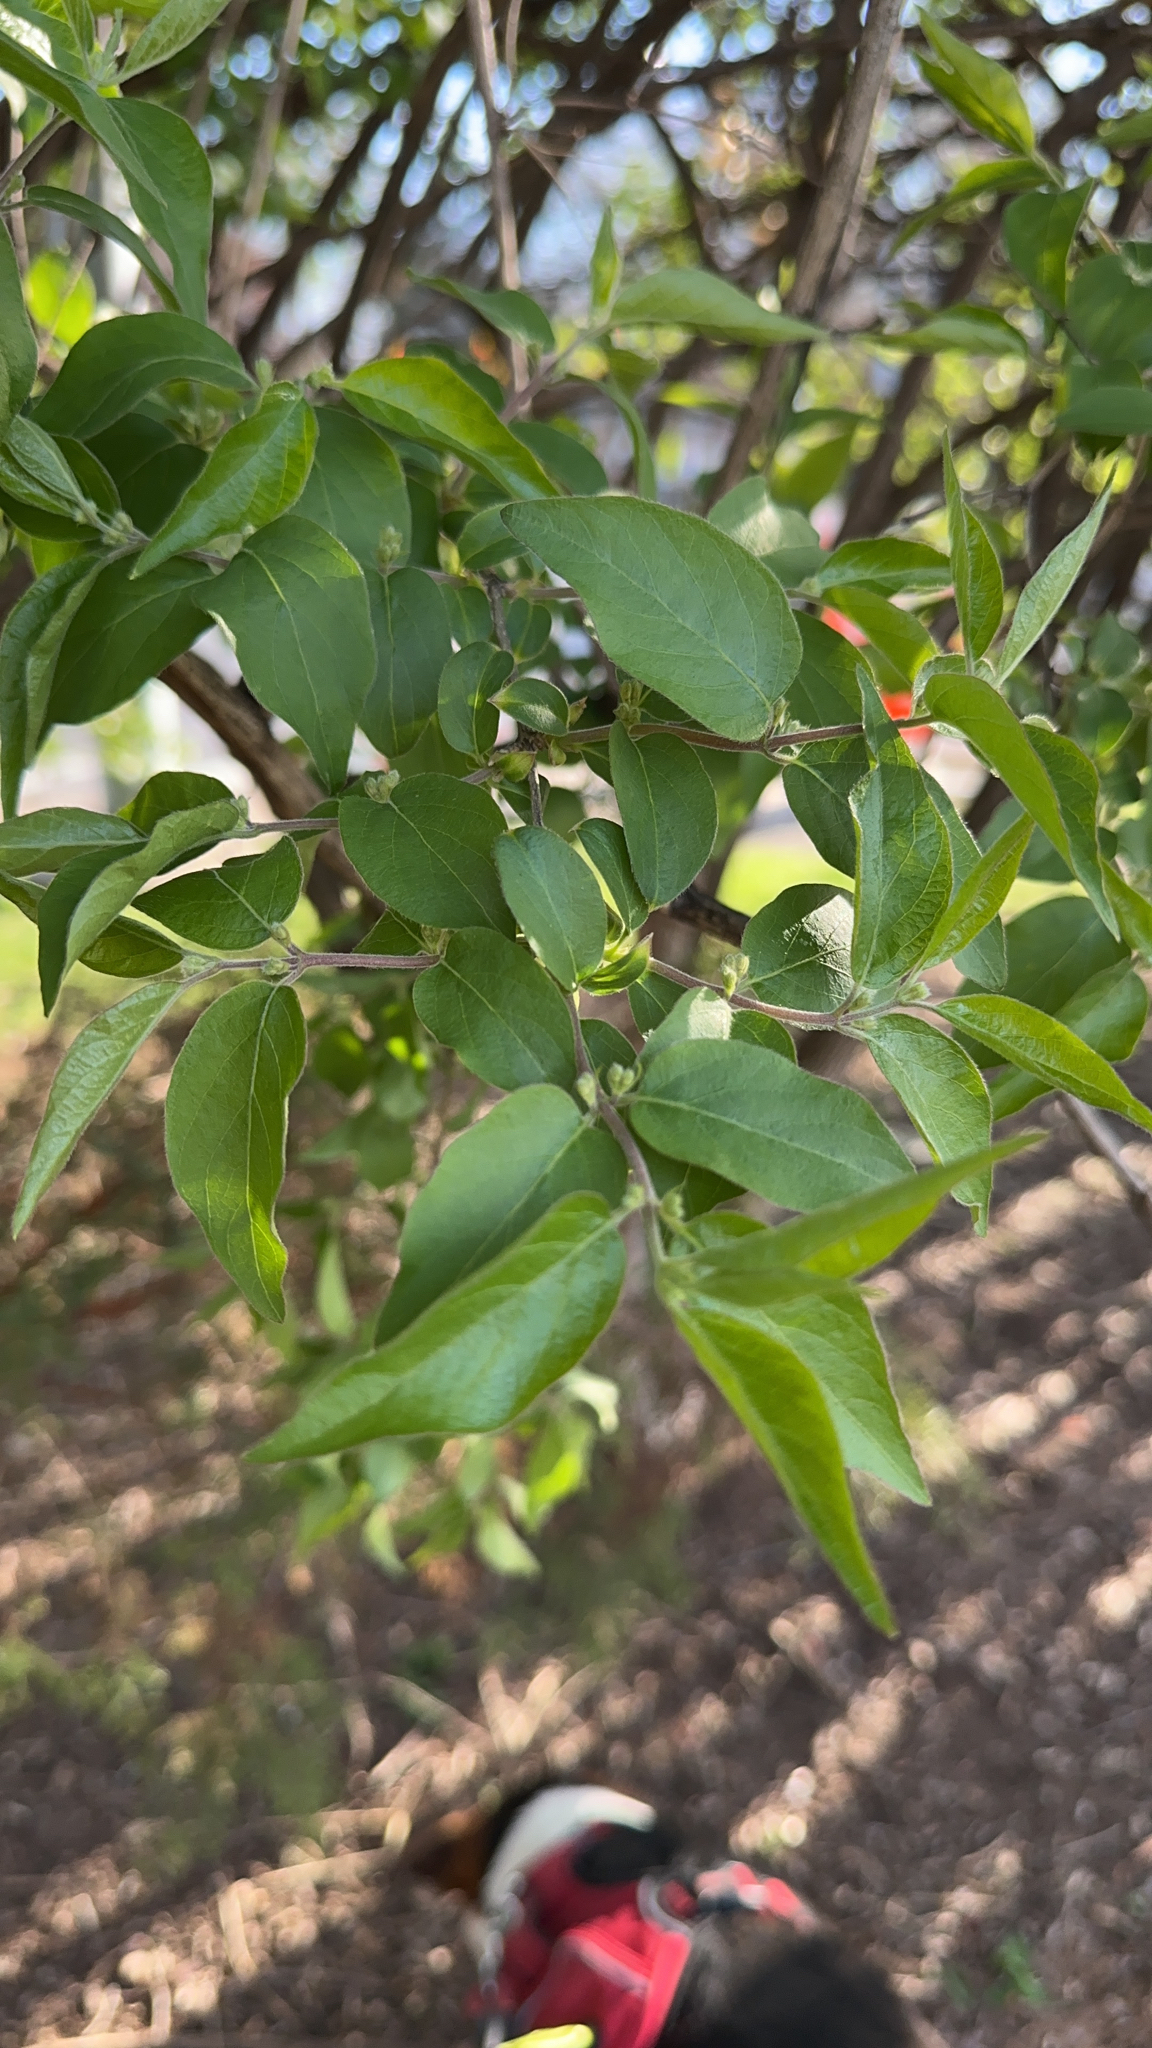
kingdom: Plantae
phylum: Tracheophyta
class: Magnoliopsida
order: Dipsacales
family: Caprifoliaceae
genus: Lonicera
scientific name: Lonicera maackii
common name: Amur honeysuckle
